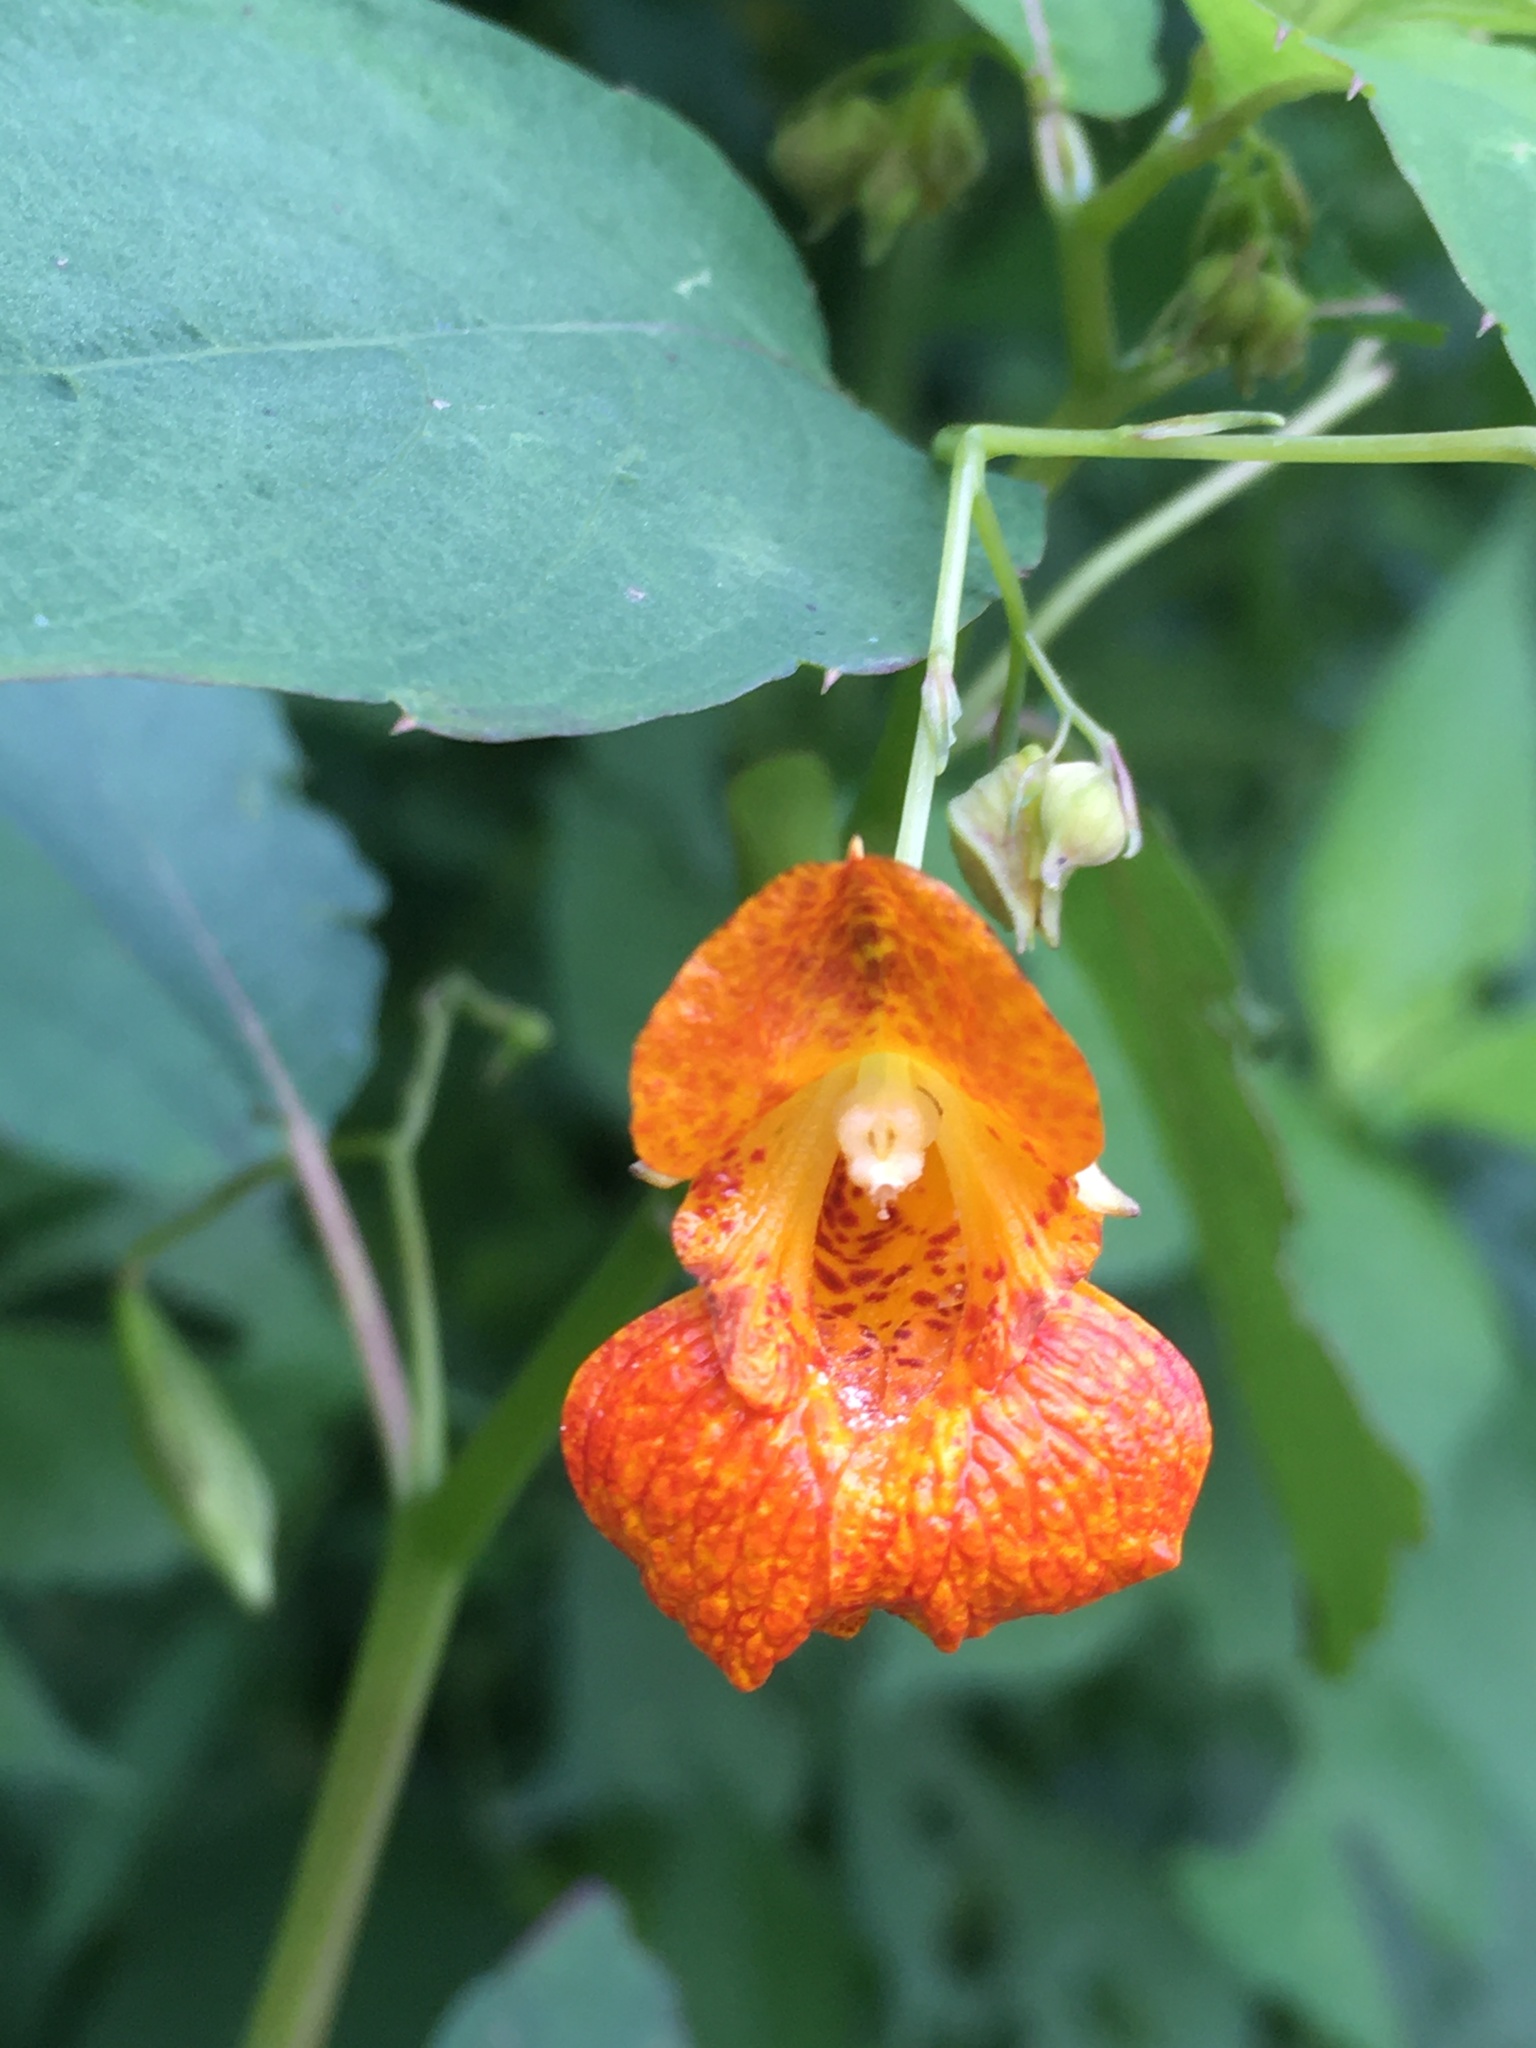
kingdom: Plantae
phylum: Tracheophyta
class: Magnoliopsida
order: Ericales
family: Balsaminaceae
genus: Impatiens
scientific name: Impatiens capensis
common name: Orange balsam
